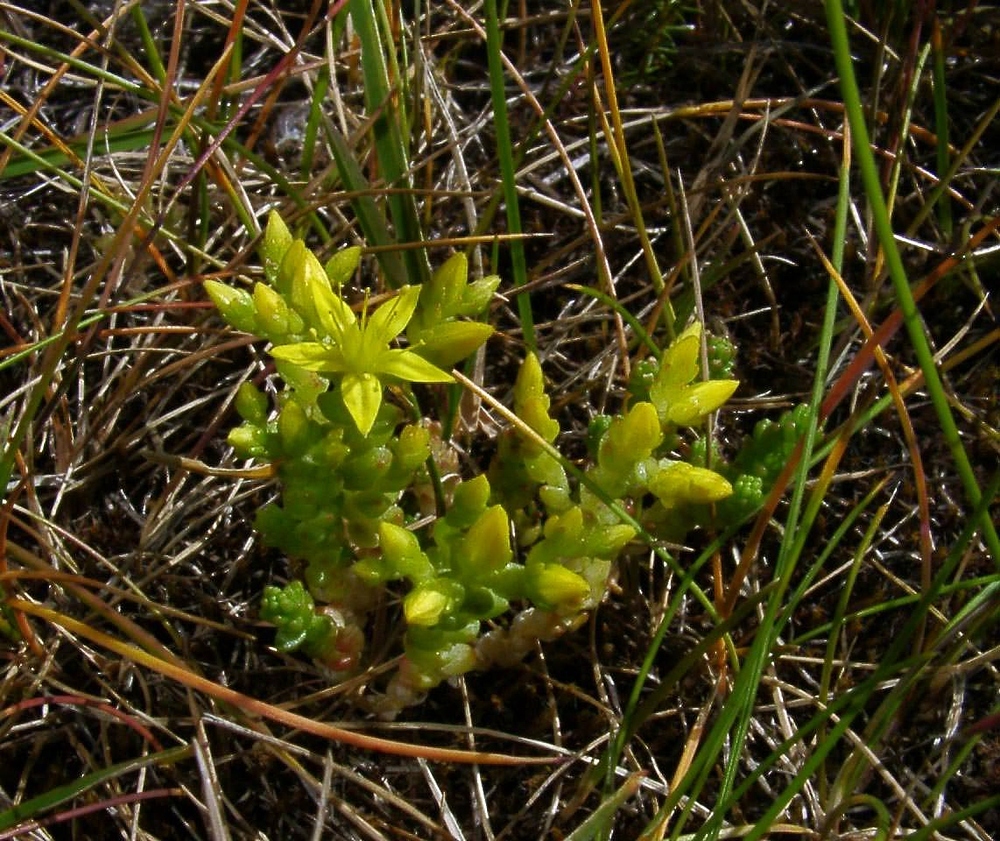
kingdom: Plantae
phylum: Tracheophyta
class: Magnoliopsida
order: Saxifragales
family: Crassulaceae
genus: Sedum
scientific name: Sedum acre
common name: Biting stonecrop
